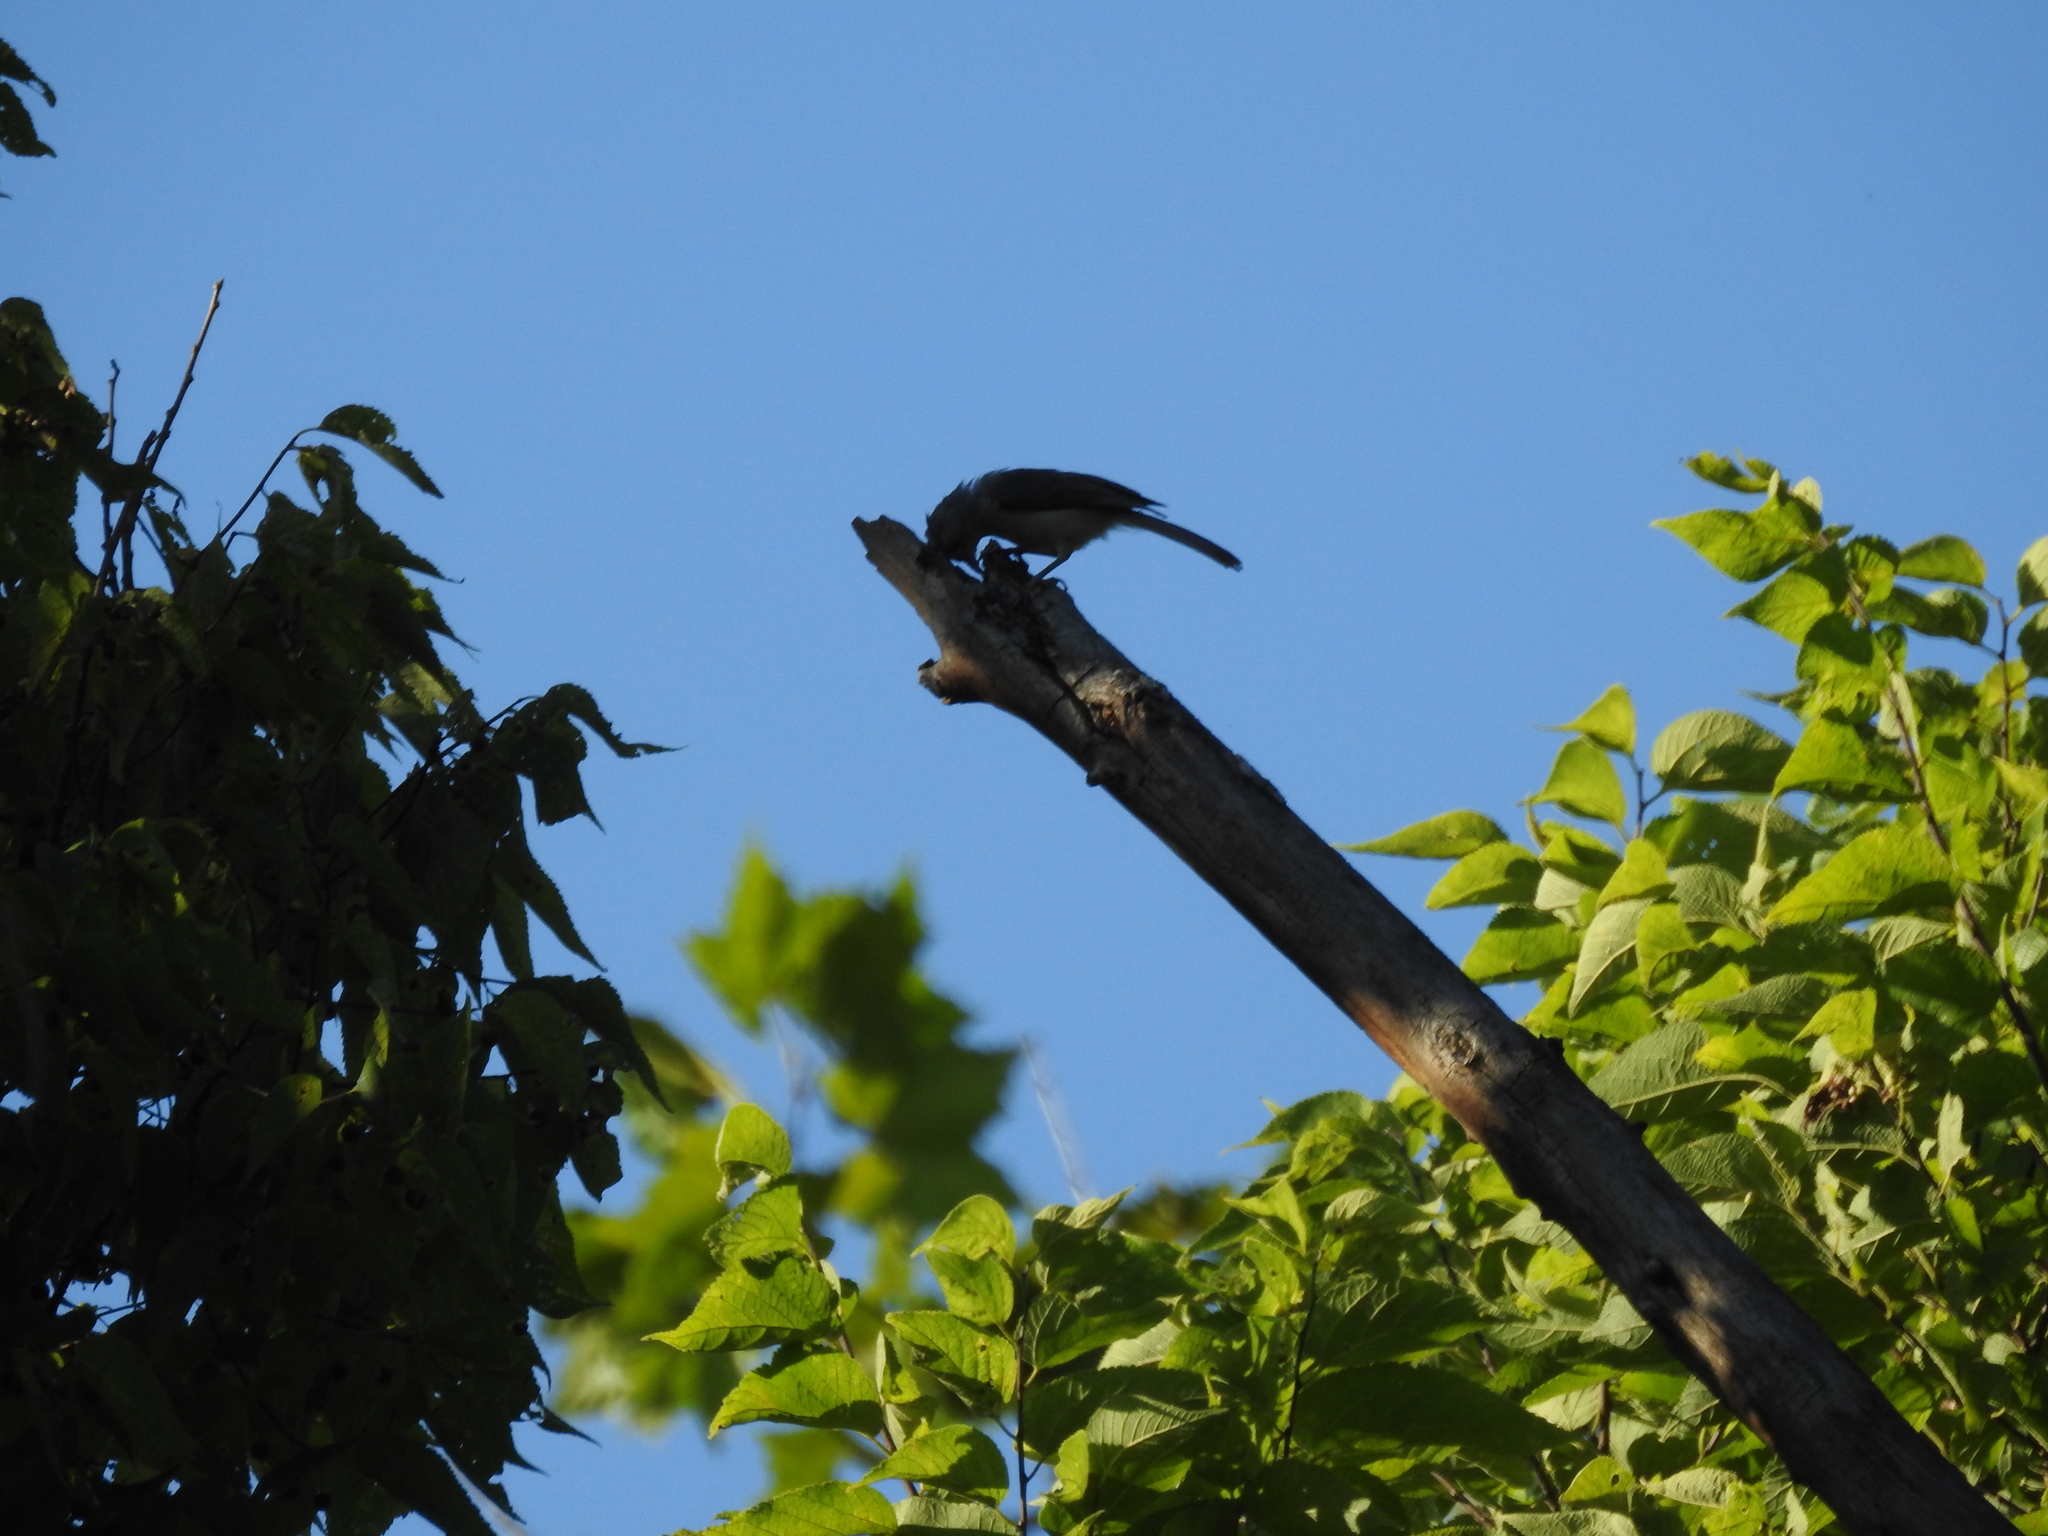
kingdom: Animalia
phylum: Chordata
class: Aves
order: Passeriformes
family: Paridae
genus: Baeolophus
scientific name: Baeolophus bicolor
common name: Tufted titmouse
